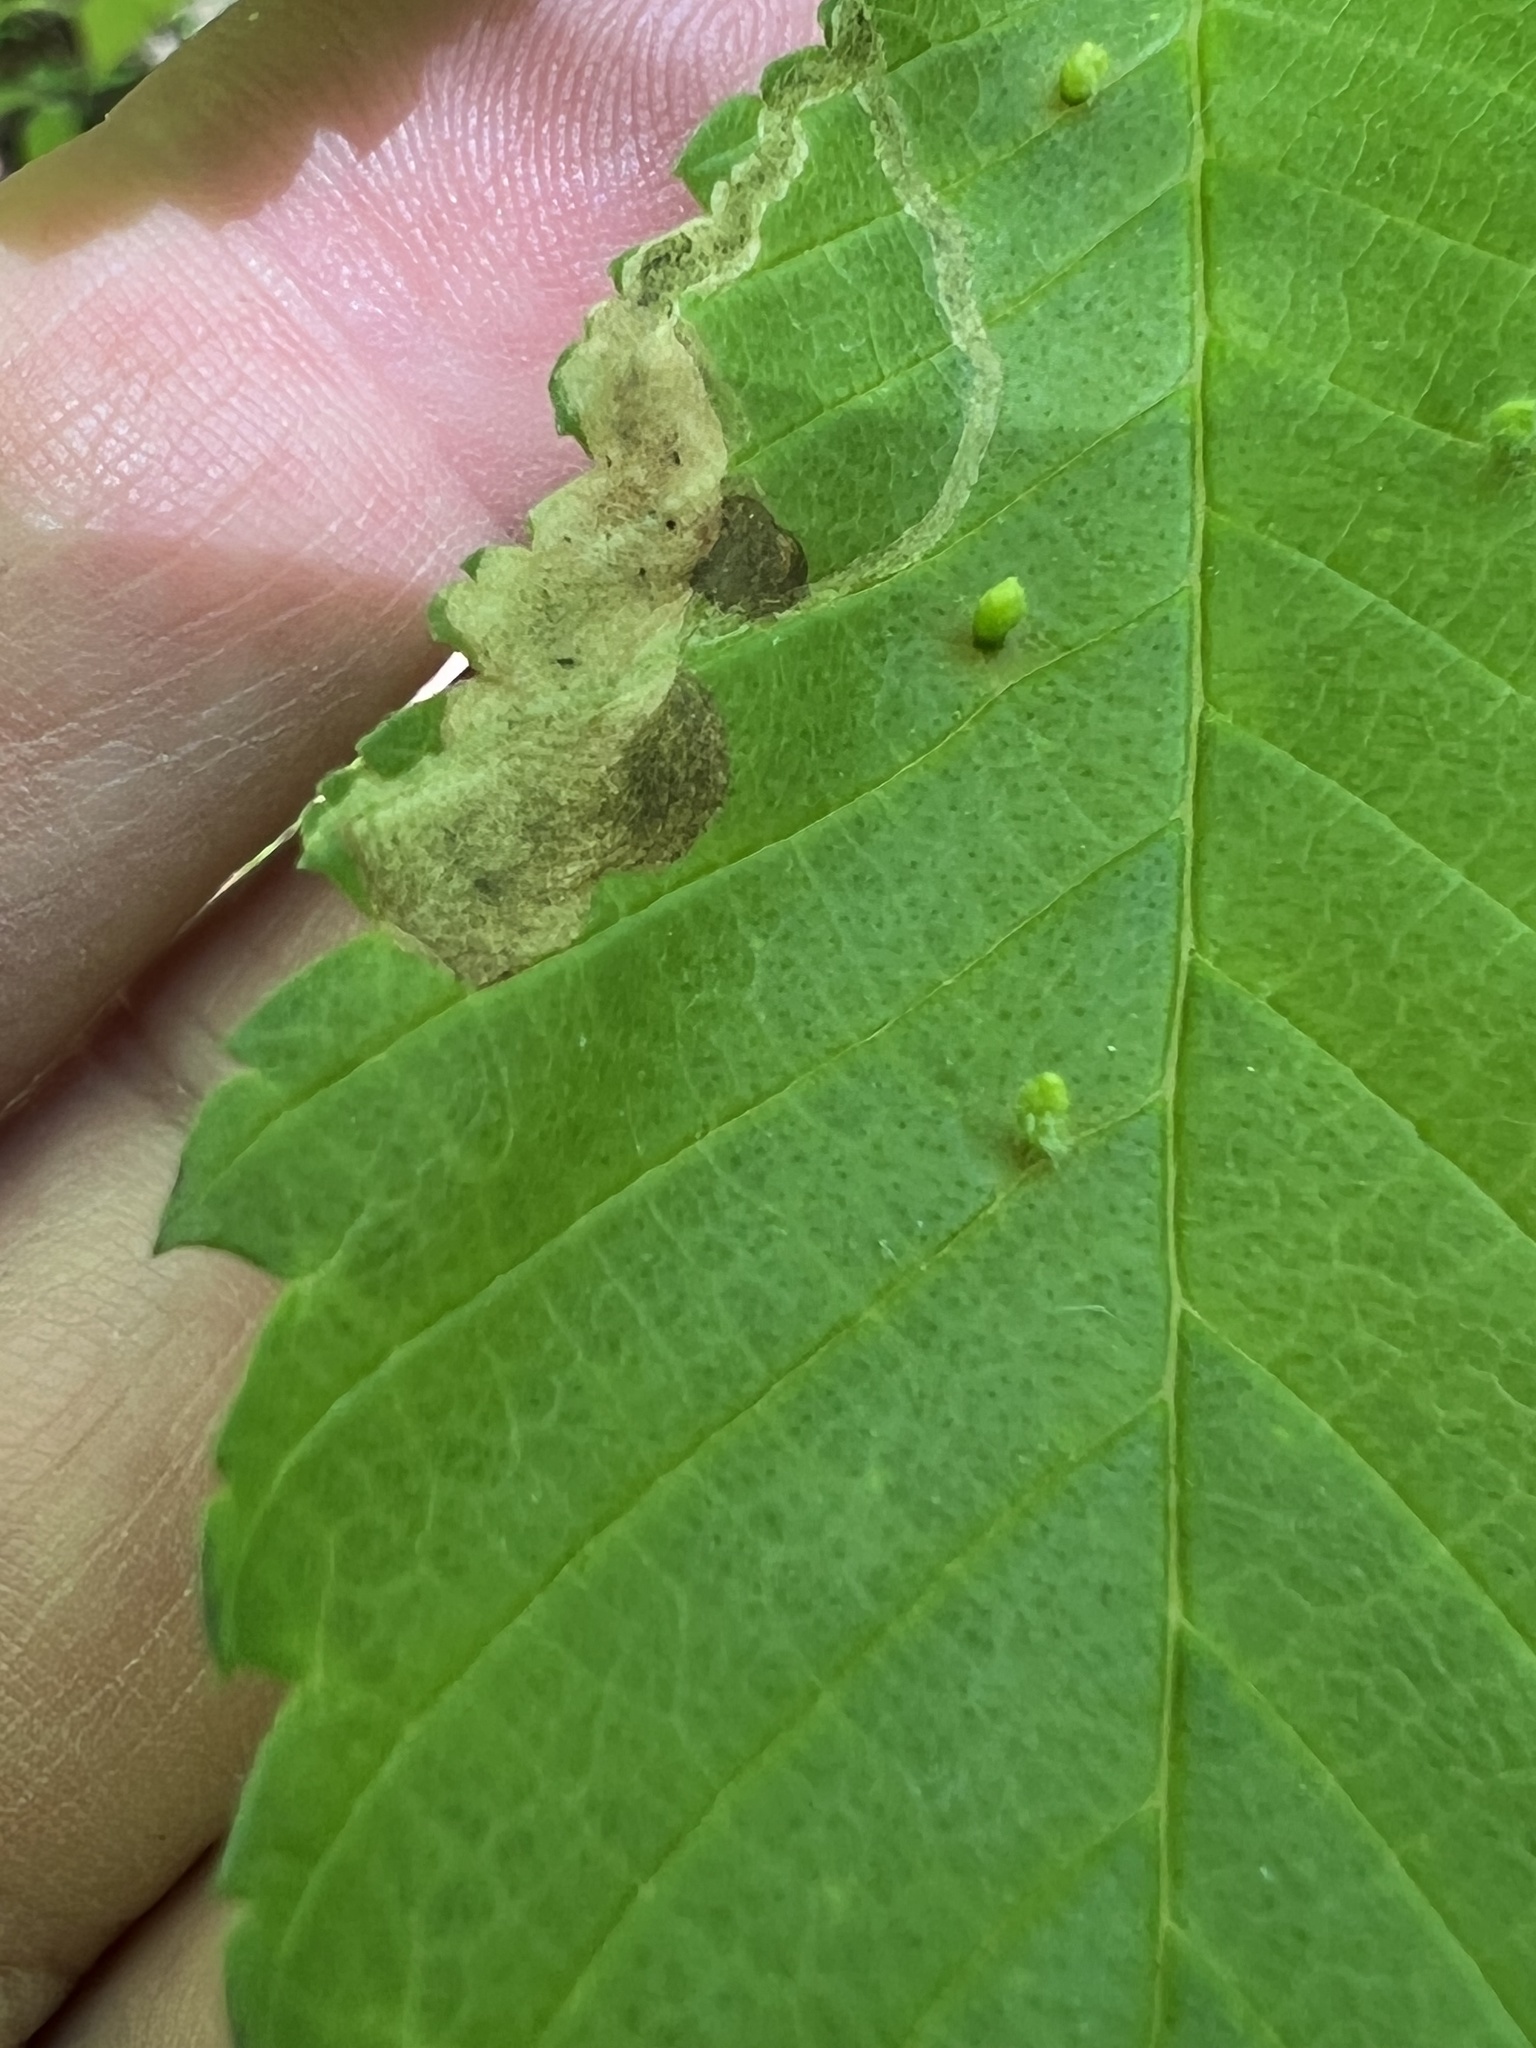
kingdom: Animalia
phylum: Arthropoda
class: Insecta
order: Diptera
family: Agromyzidae
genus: Agromyza
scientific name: Agromyza aristata
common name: Elm agromyzid leafminer
